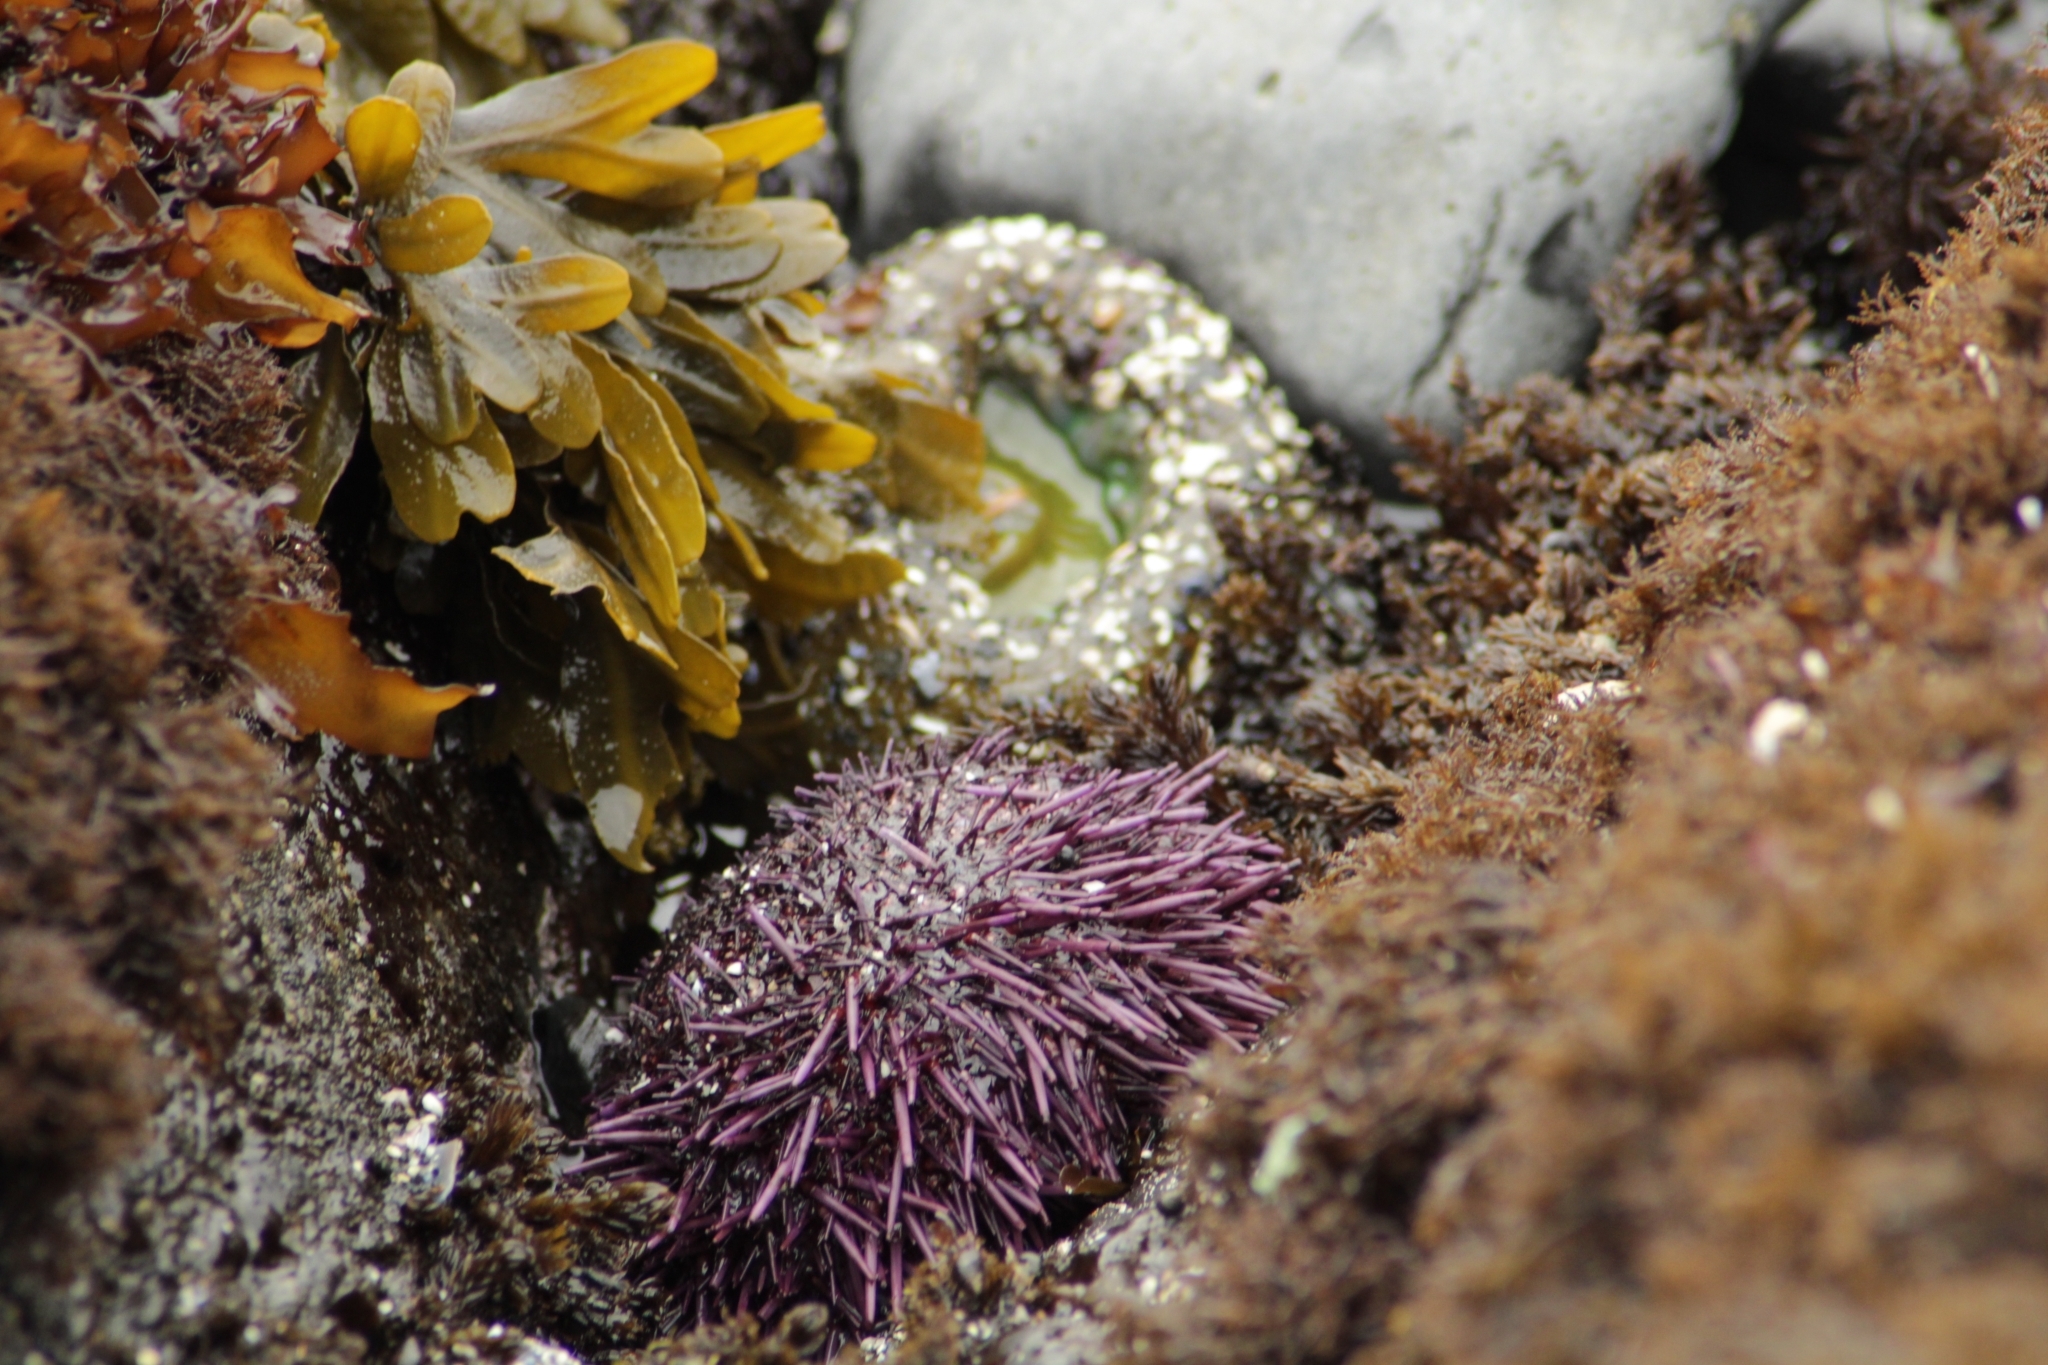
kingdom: Animalia
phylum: Echinodermata
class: Echinoidea
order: Camarodonta
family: Strongylocentrotidae
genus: Strongylocentrotus
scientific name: Strongylocentrotus purpuratus
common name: Purple sea urchin
